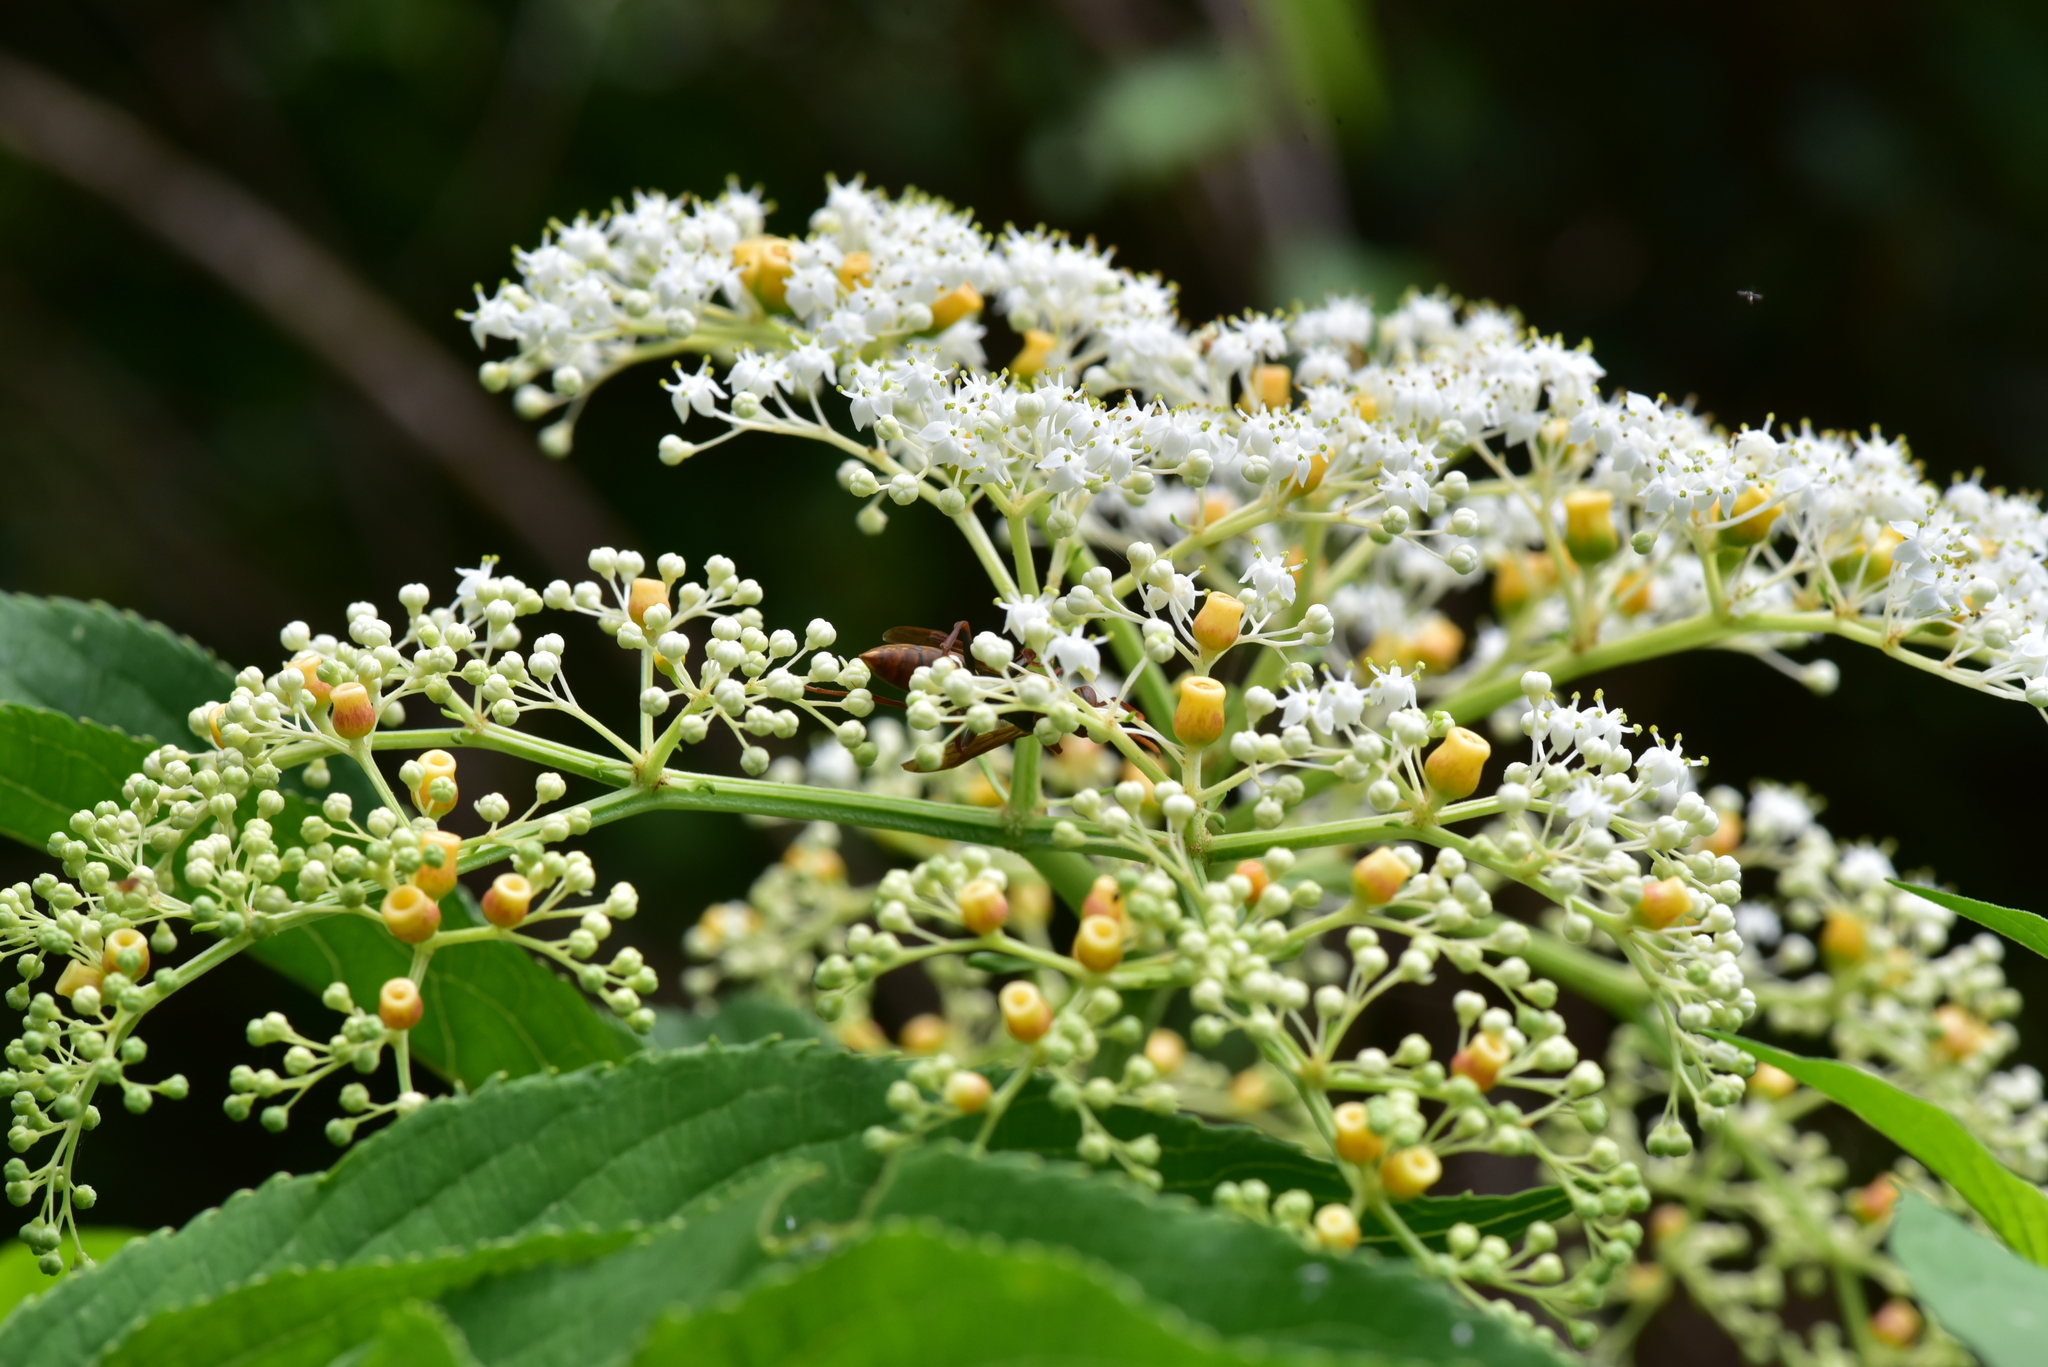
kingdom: Plantae
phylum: Tracheophyta
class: Magnoliopsida
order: Dipsacales
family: Viburnaceae
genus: Sambucus
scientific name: Sambucus javanica
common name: Chinese elder
